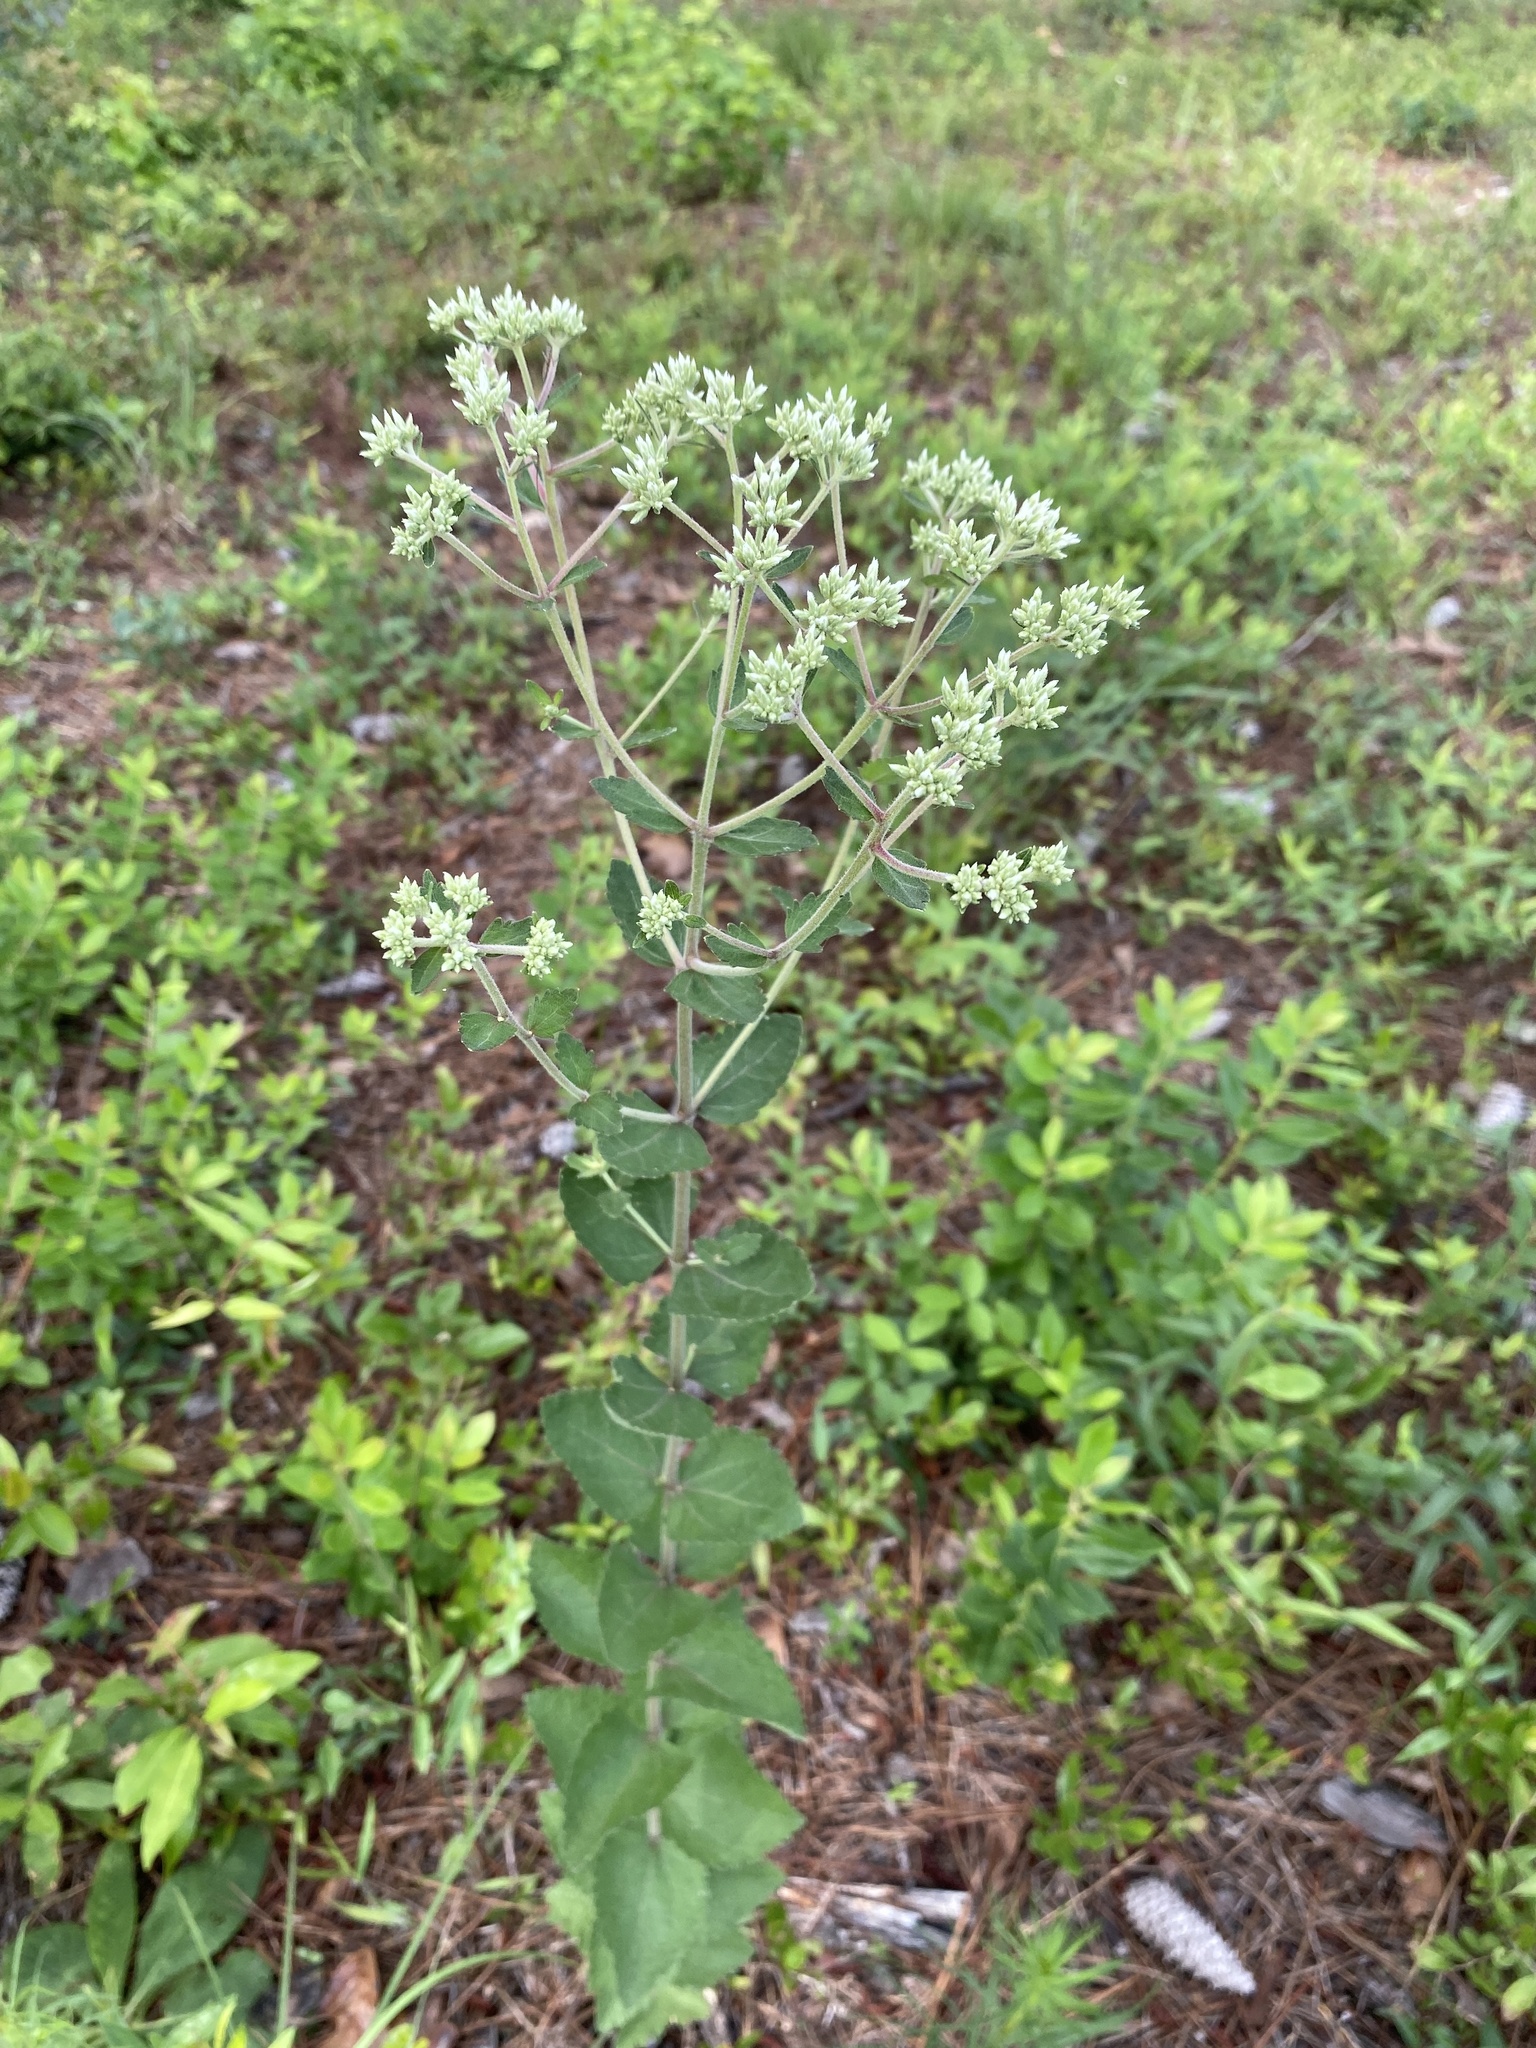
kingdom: Plantae
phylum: Tracheophyta
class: Magnoliopsida
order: Asterales
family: Asteraceae
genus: Eupatorium
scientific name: Eupatorium rotundifolium
